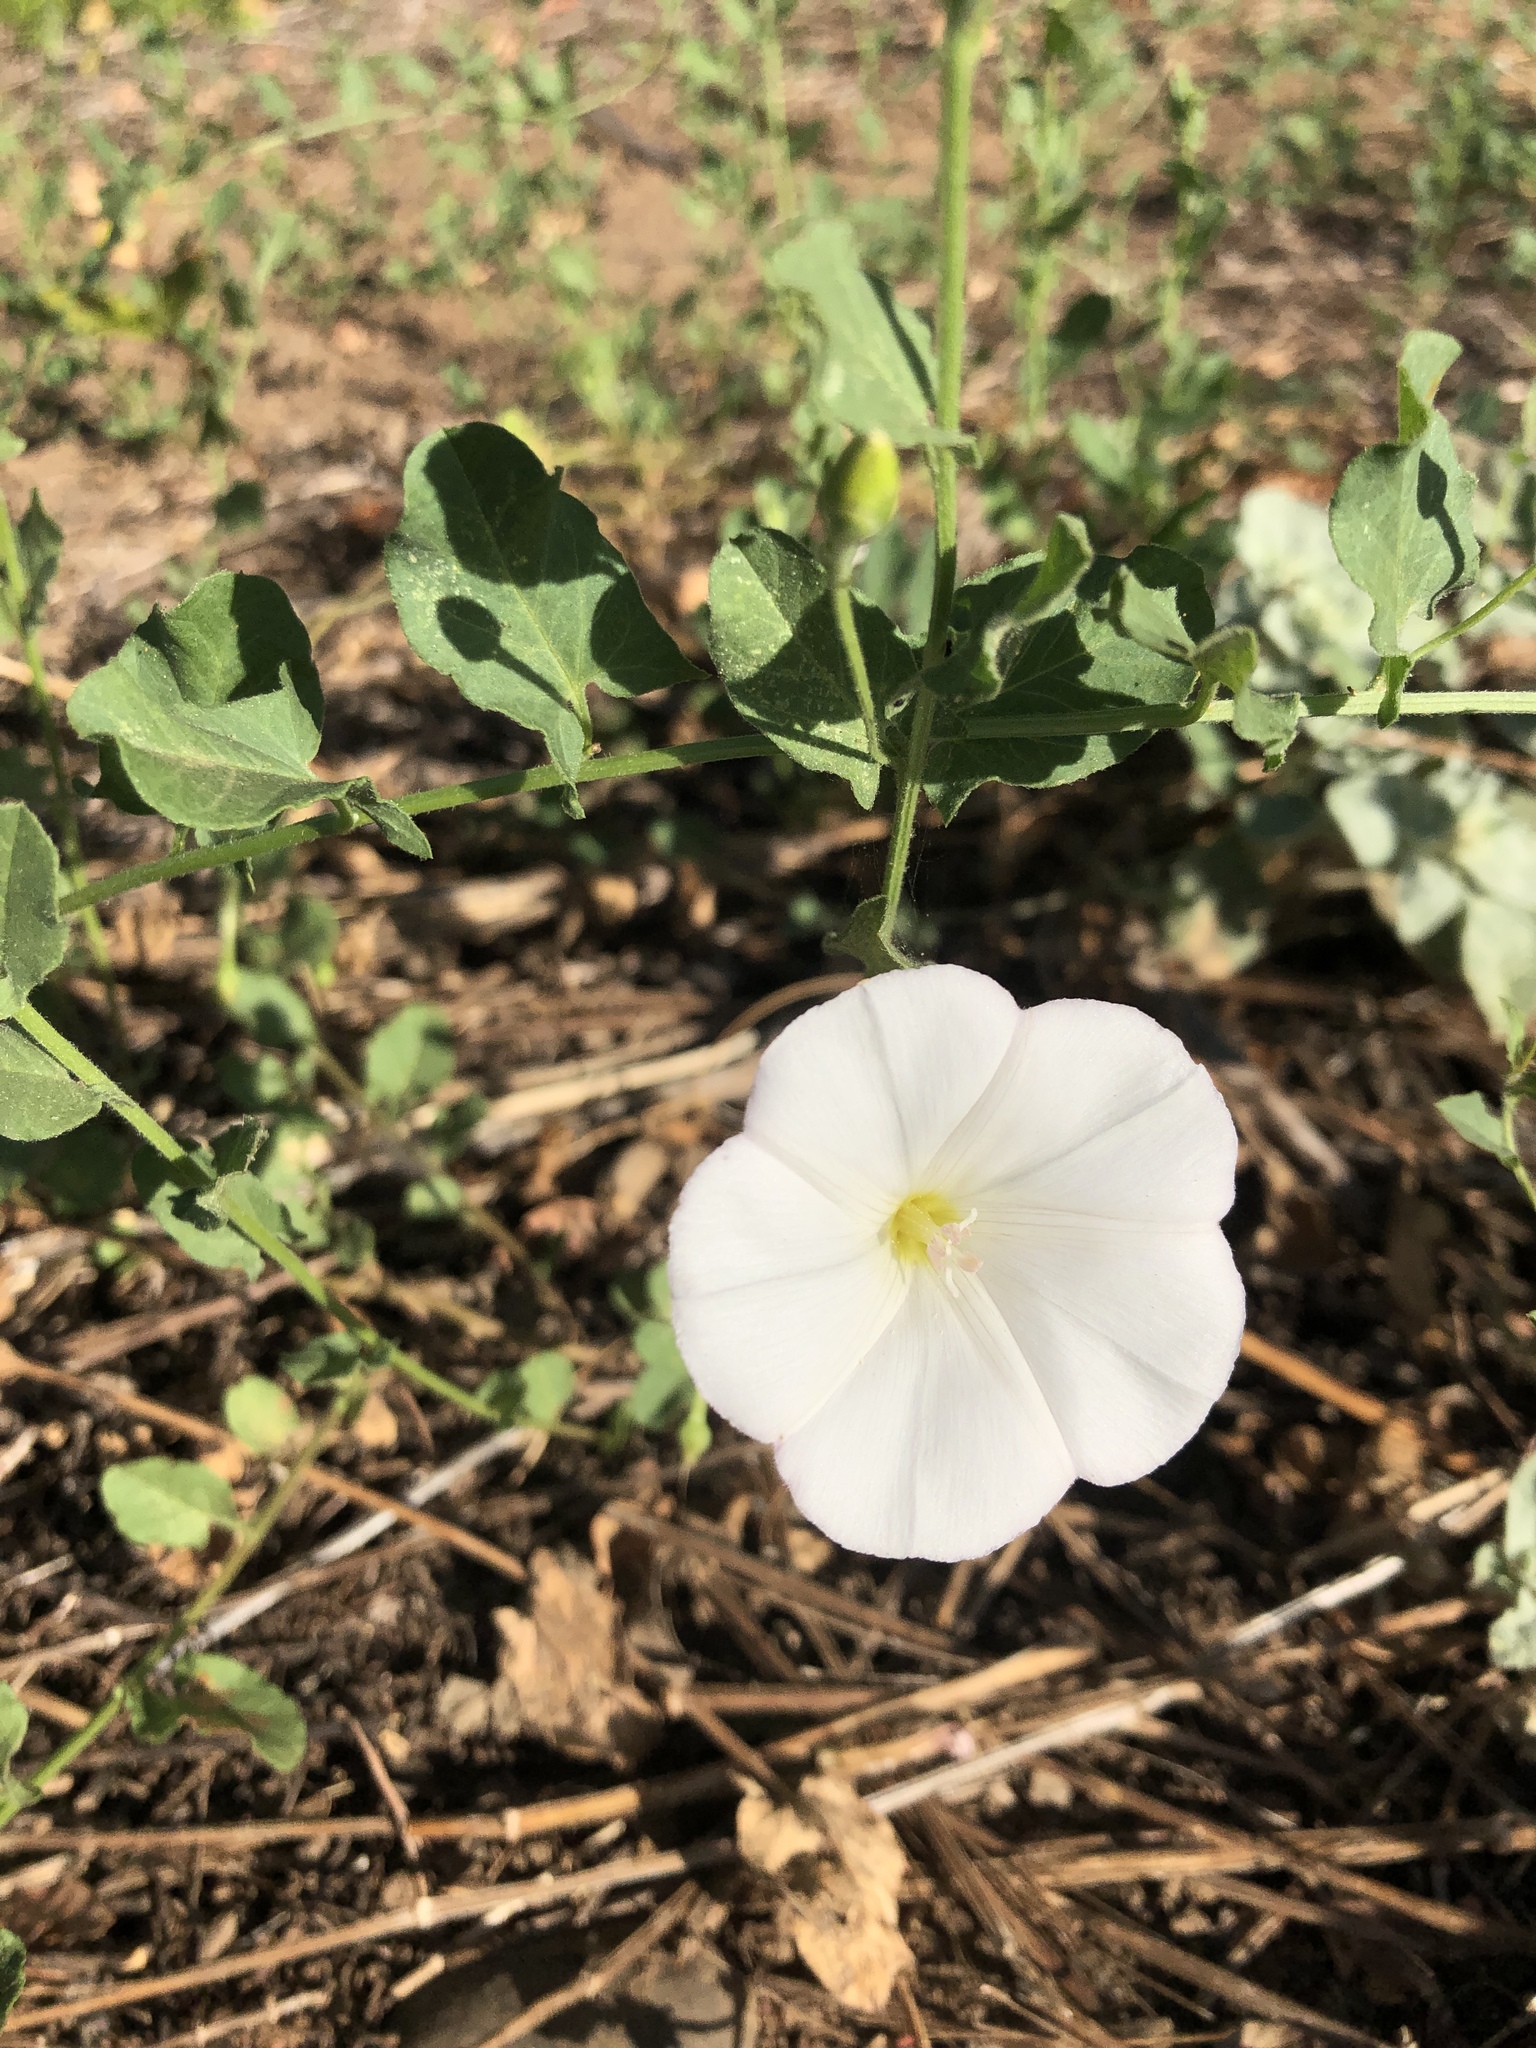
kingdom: Plantae
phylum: Tracheophyta
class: Magnoliopsida
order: Solanales
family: Convolvulaceae
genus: Convolvulus
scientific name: Convolvulus arvensis
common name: Field bindweed
